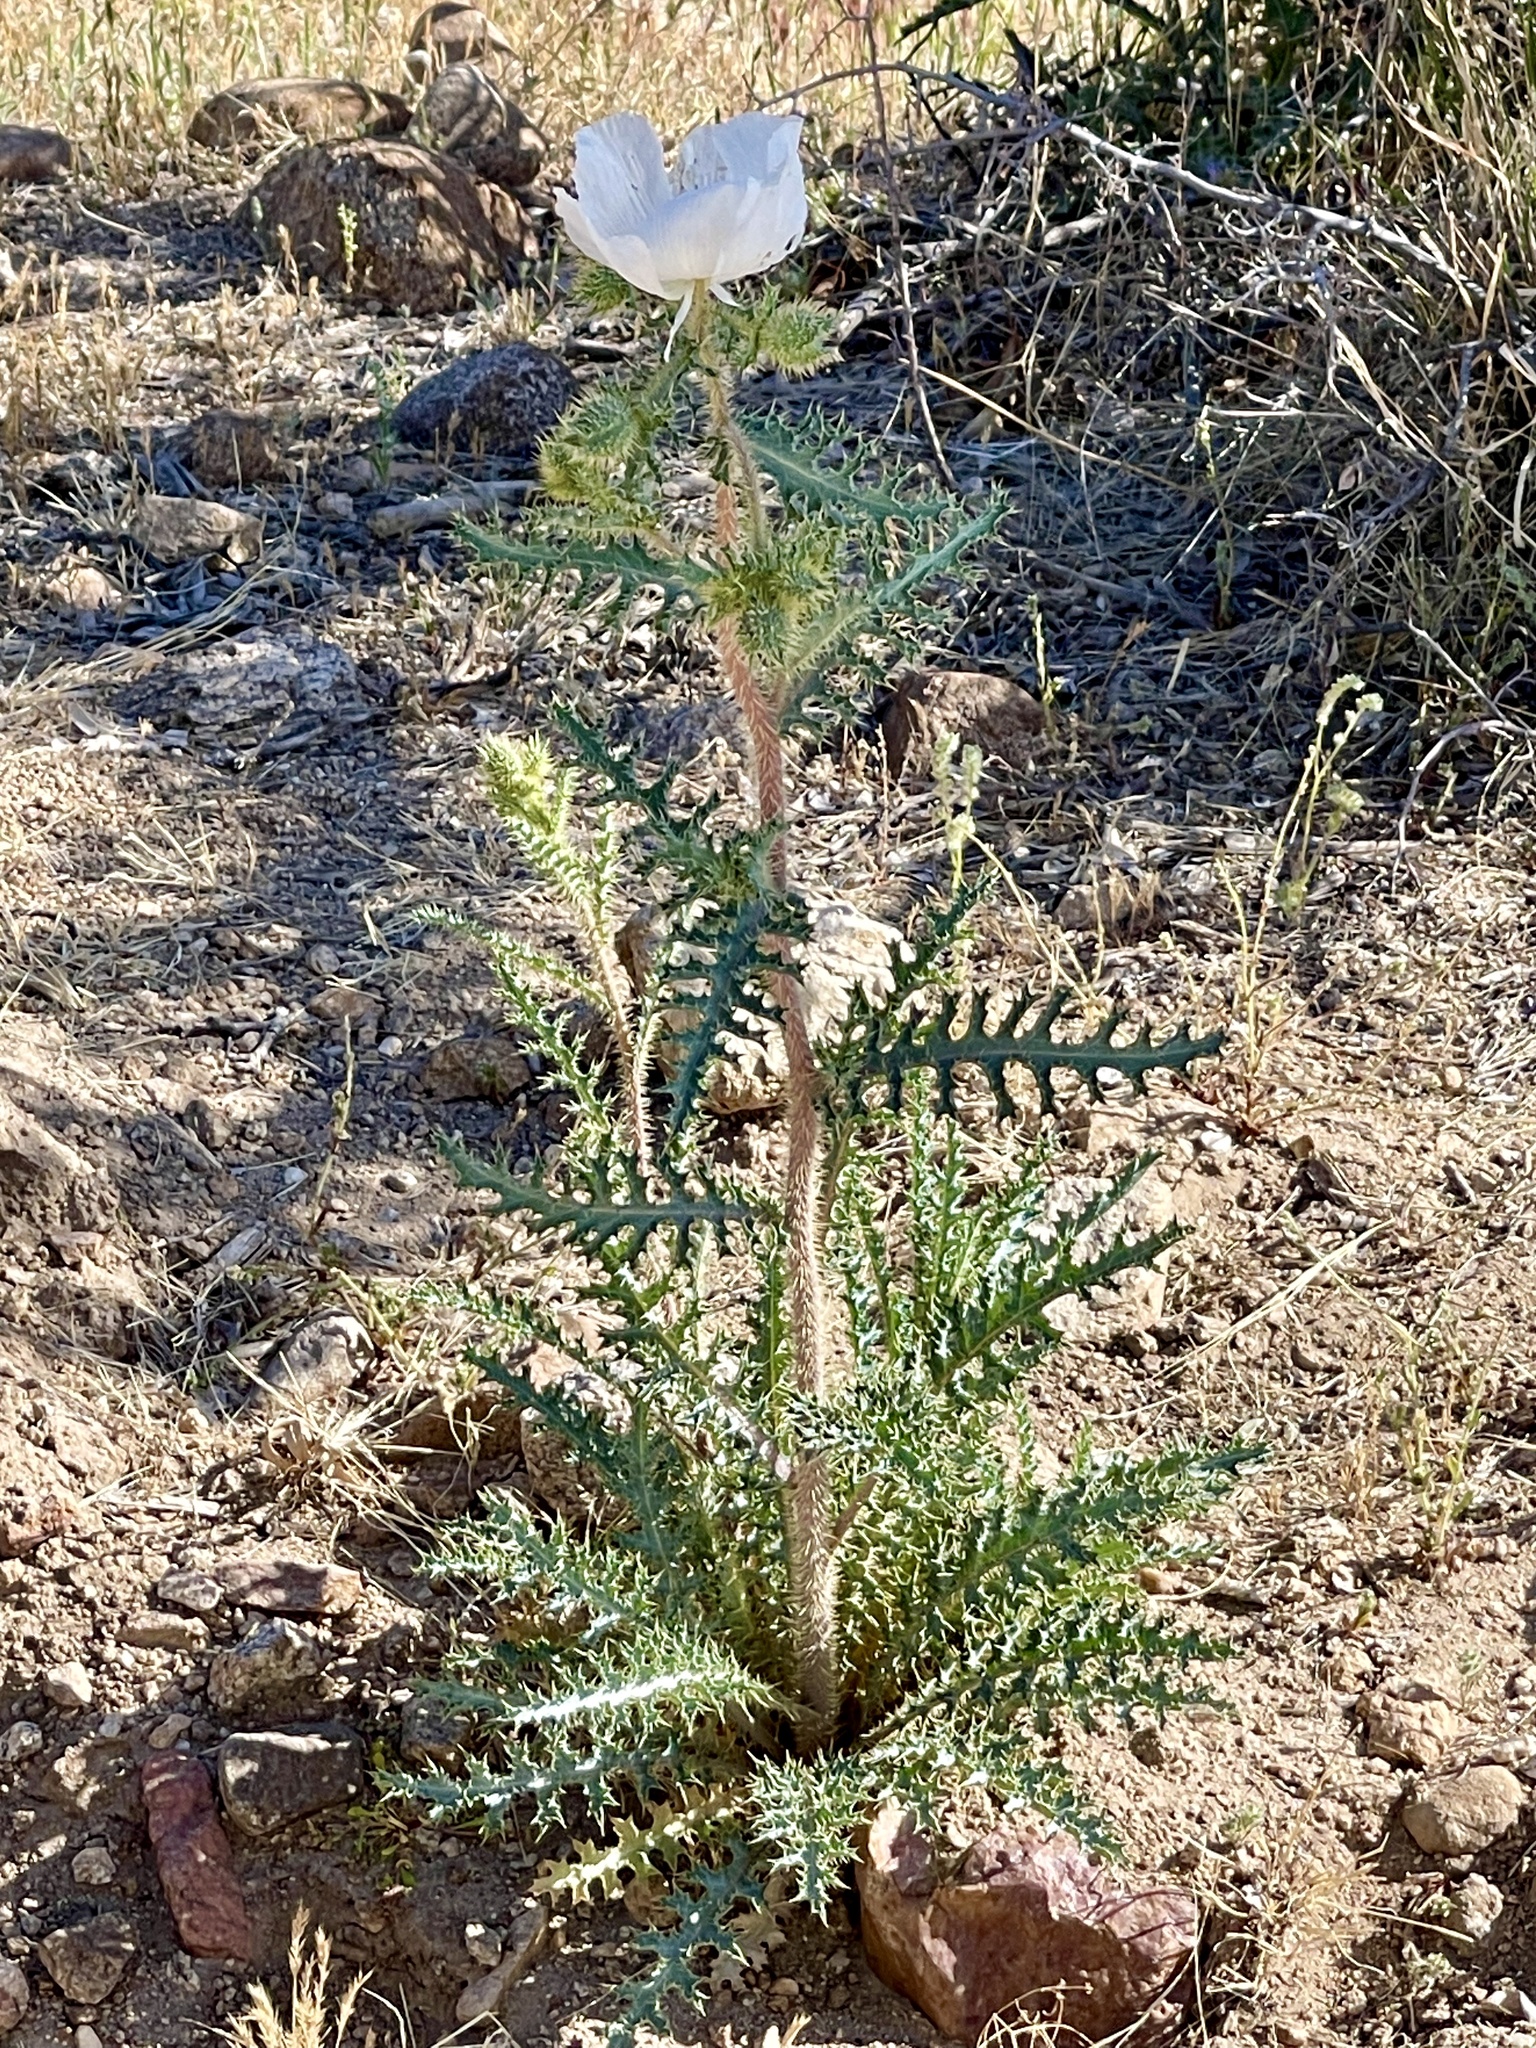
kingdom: Plantae
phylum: Tracheophyta
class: Magnoliopsida
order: Ranunculales
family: Papaveraceae
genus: Argemone
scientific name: Argemone pleiacantha
